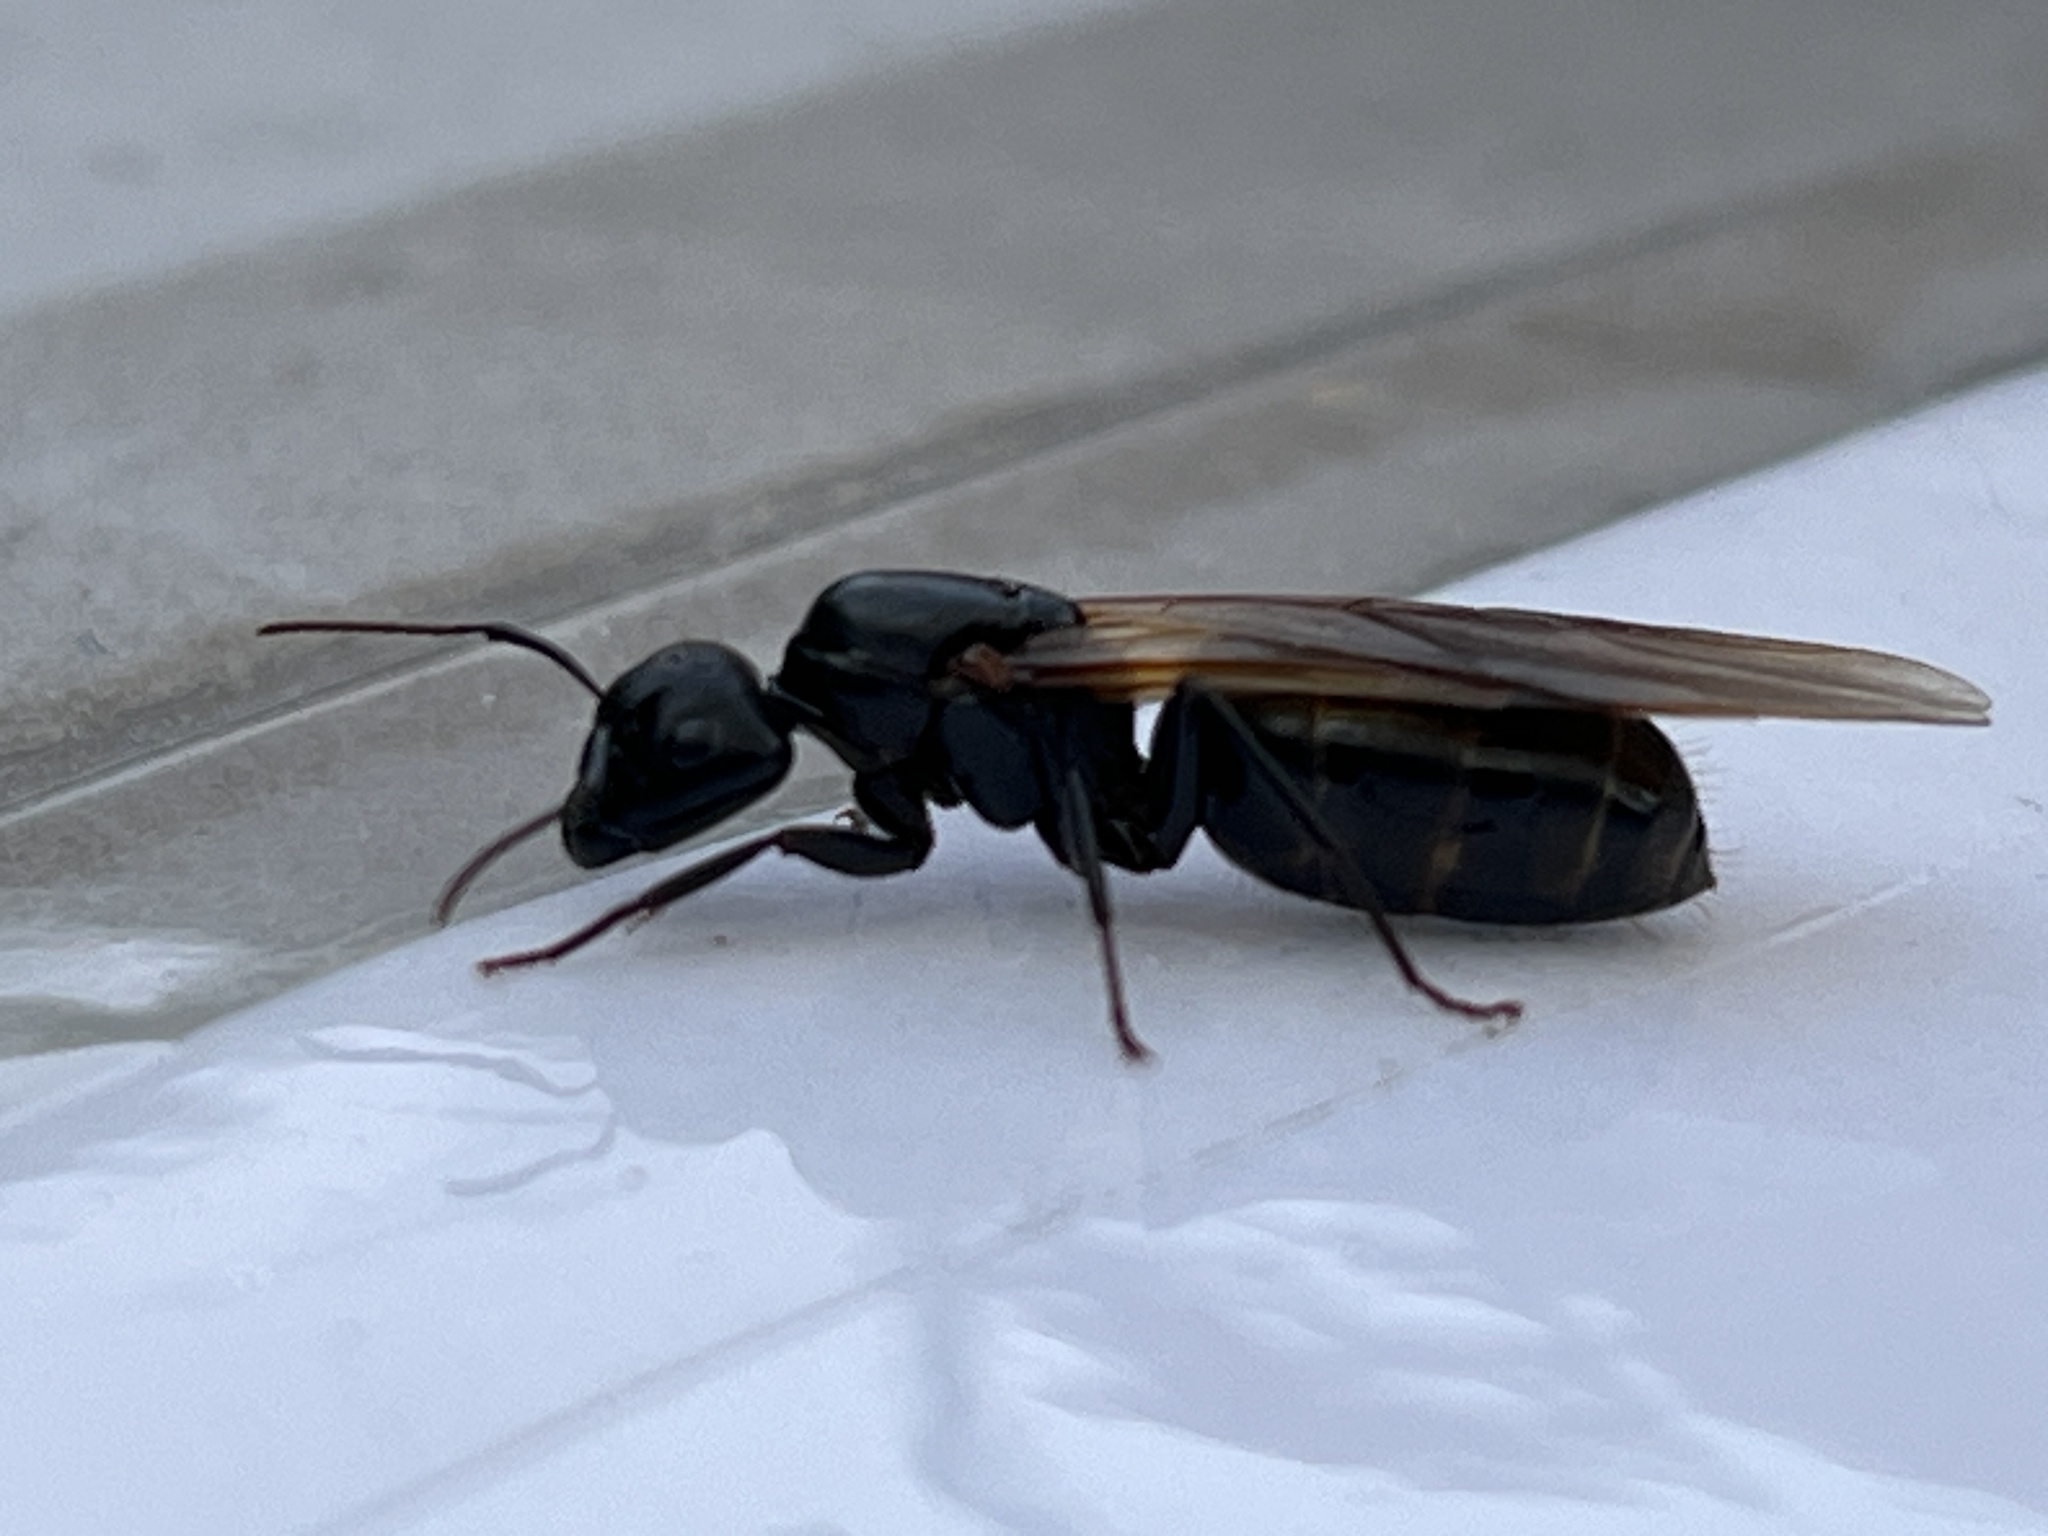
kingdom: Animalia
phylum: Arthropoda
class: Insecta
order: Hymenoptera
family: Formicidae
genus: Camponotus
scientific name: Camponotus pennsylvanicus
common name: Black carpenter ant
